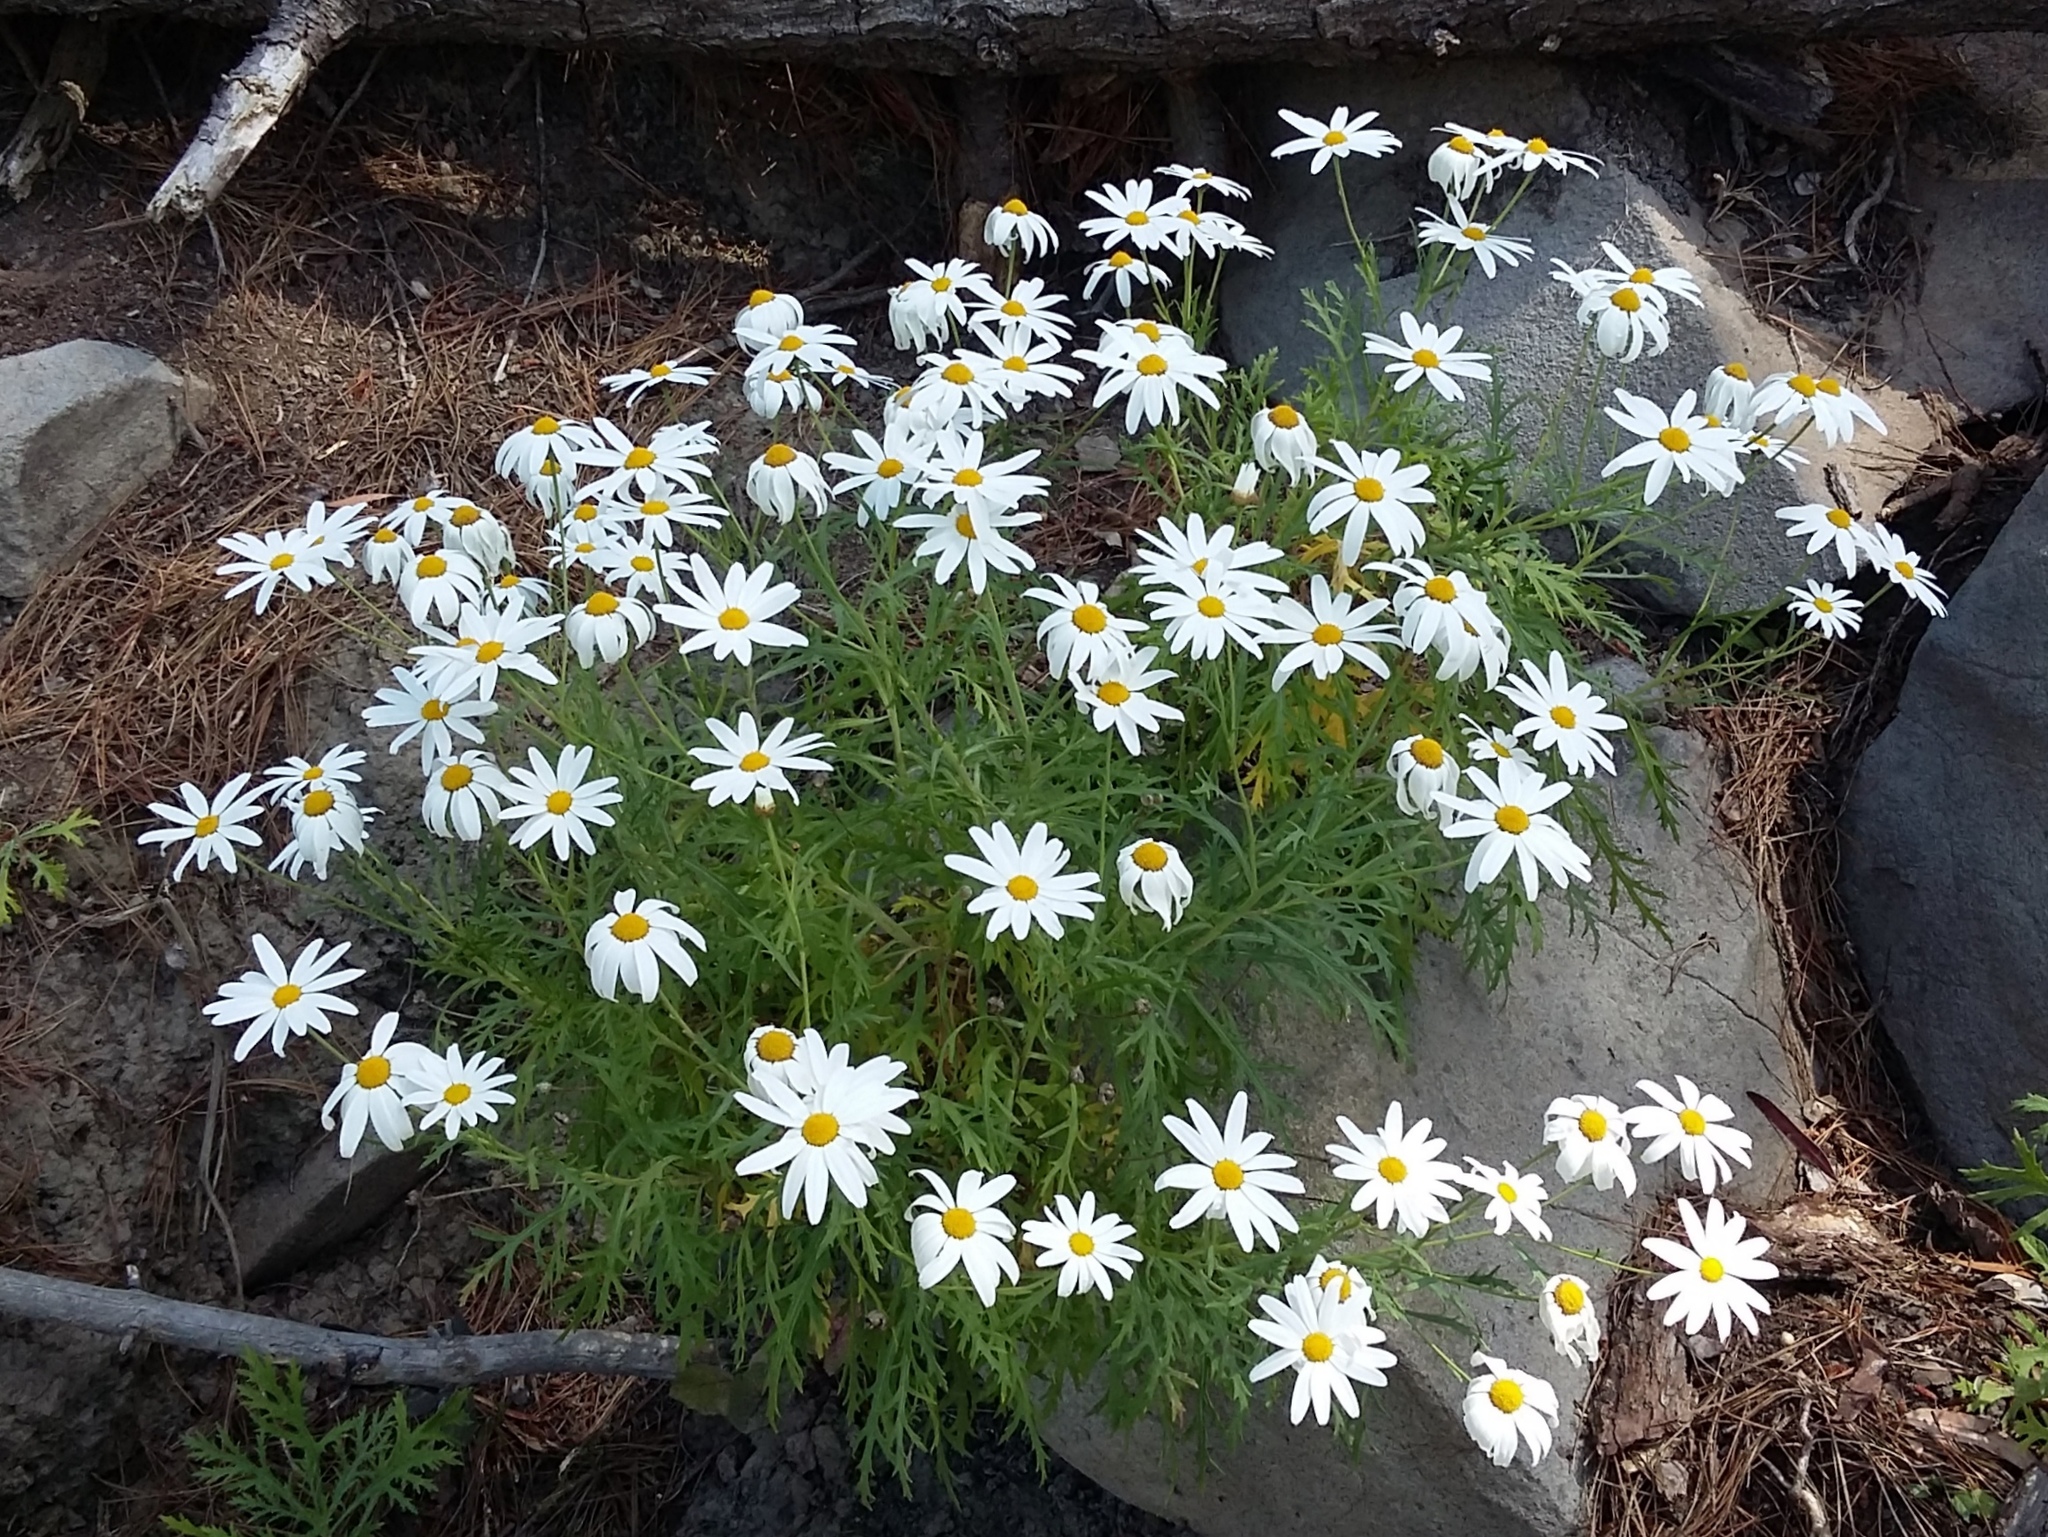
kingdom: Plantae
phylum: Tracheophyta
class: Magnoliopsida
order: Asterales
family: Asteraceae
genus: Argyranthemum
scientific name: Argyranthemum frutescens
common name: Paris daisy
